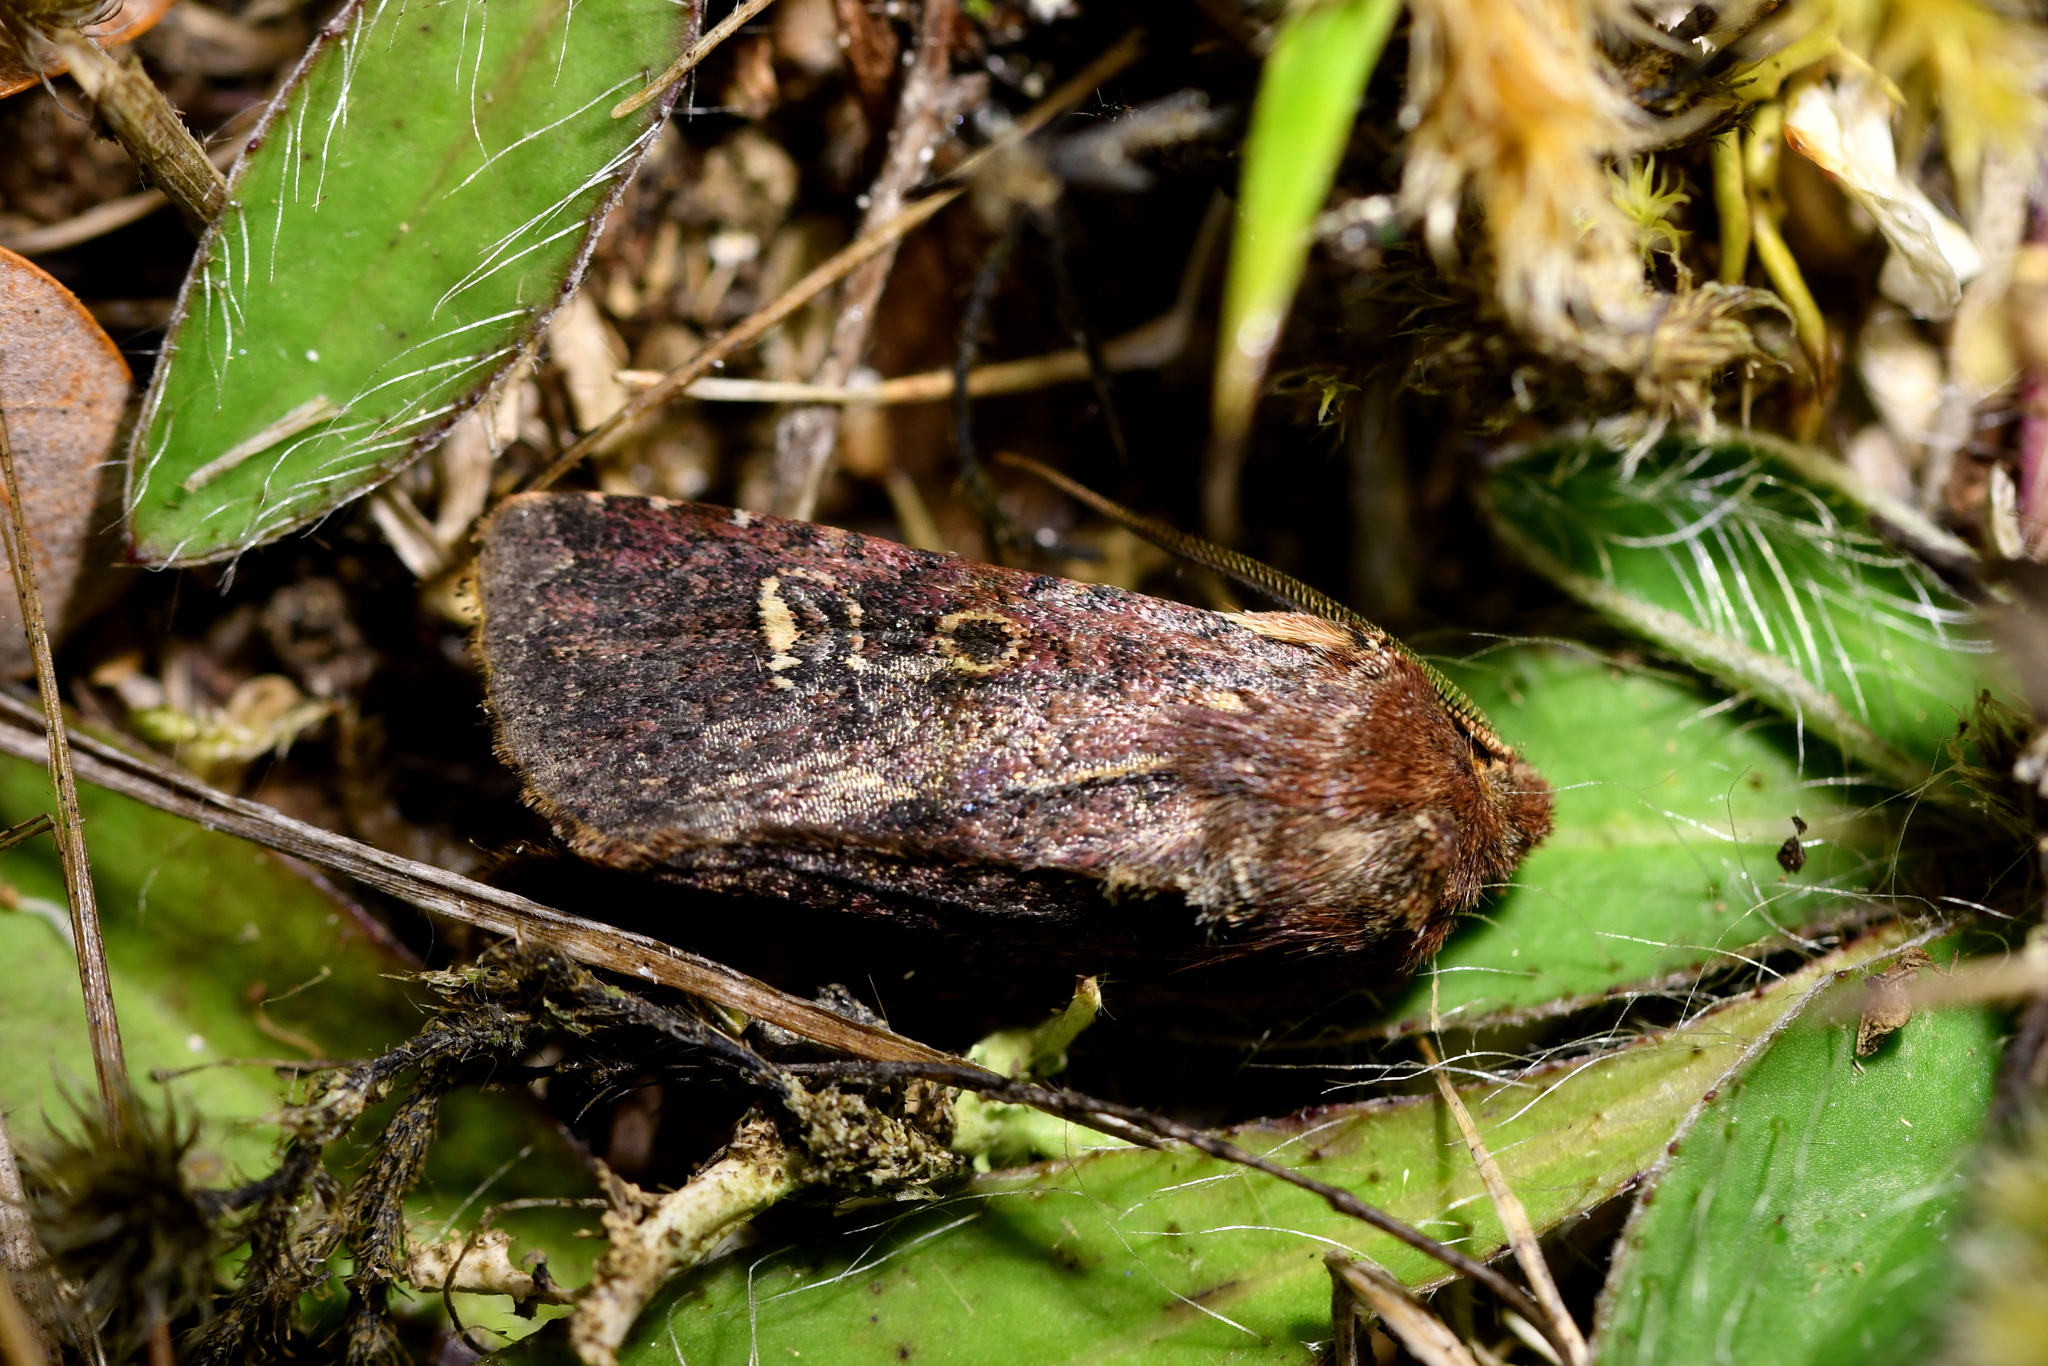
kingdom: Animalia
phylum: Arthropoda
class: Insecta
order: Lepidoptera
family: Noctuidae
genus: Ichneutica
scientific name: Ichneutica agorastis
